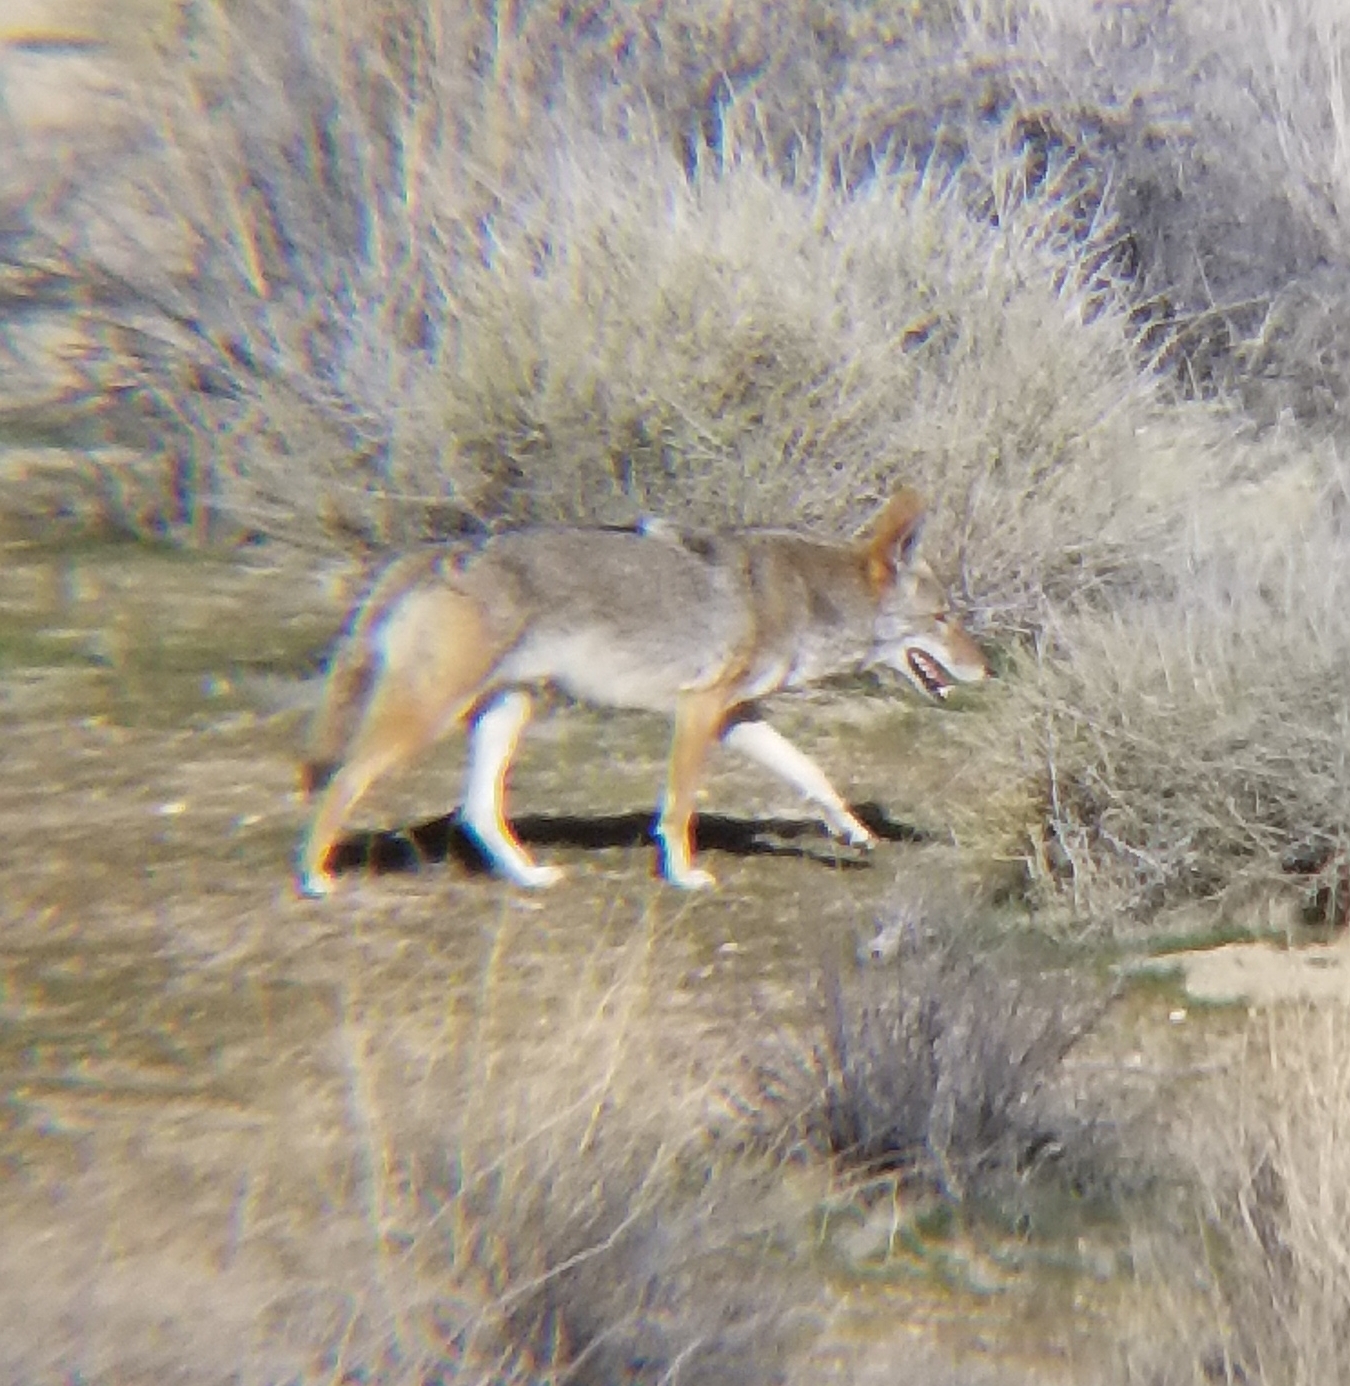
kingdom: Animalia
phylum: Chordata
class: Mammalia
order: Carnivora
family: Canidae
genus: Canis
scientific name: Canis latrans
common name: Coyote
